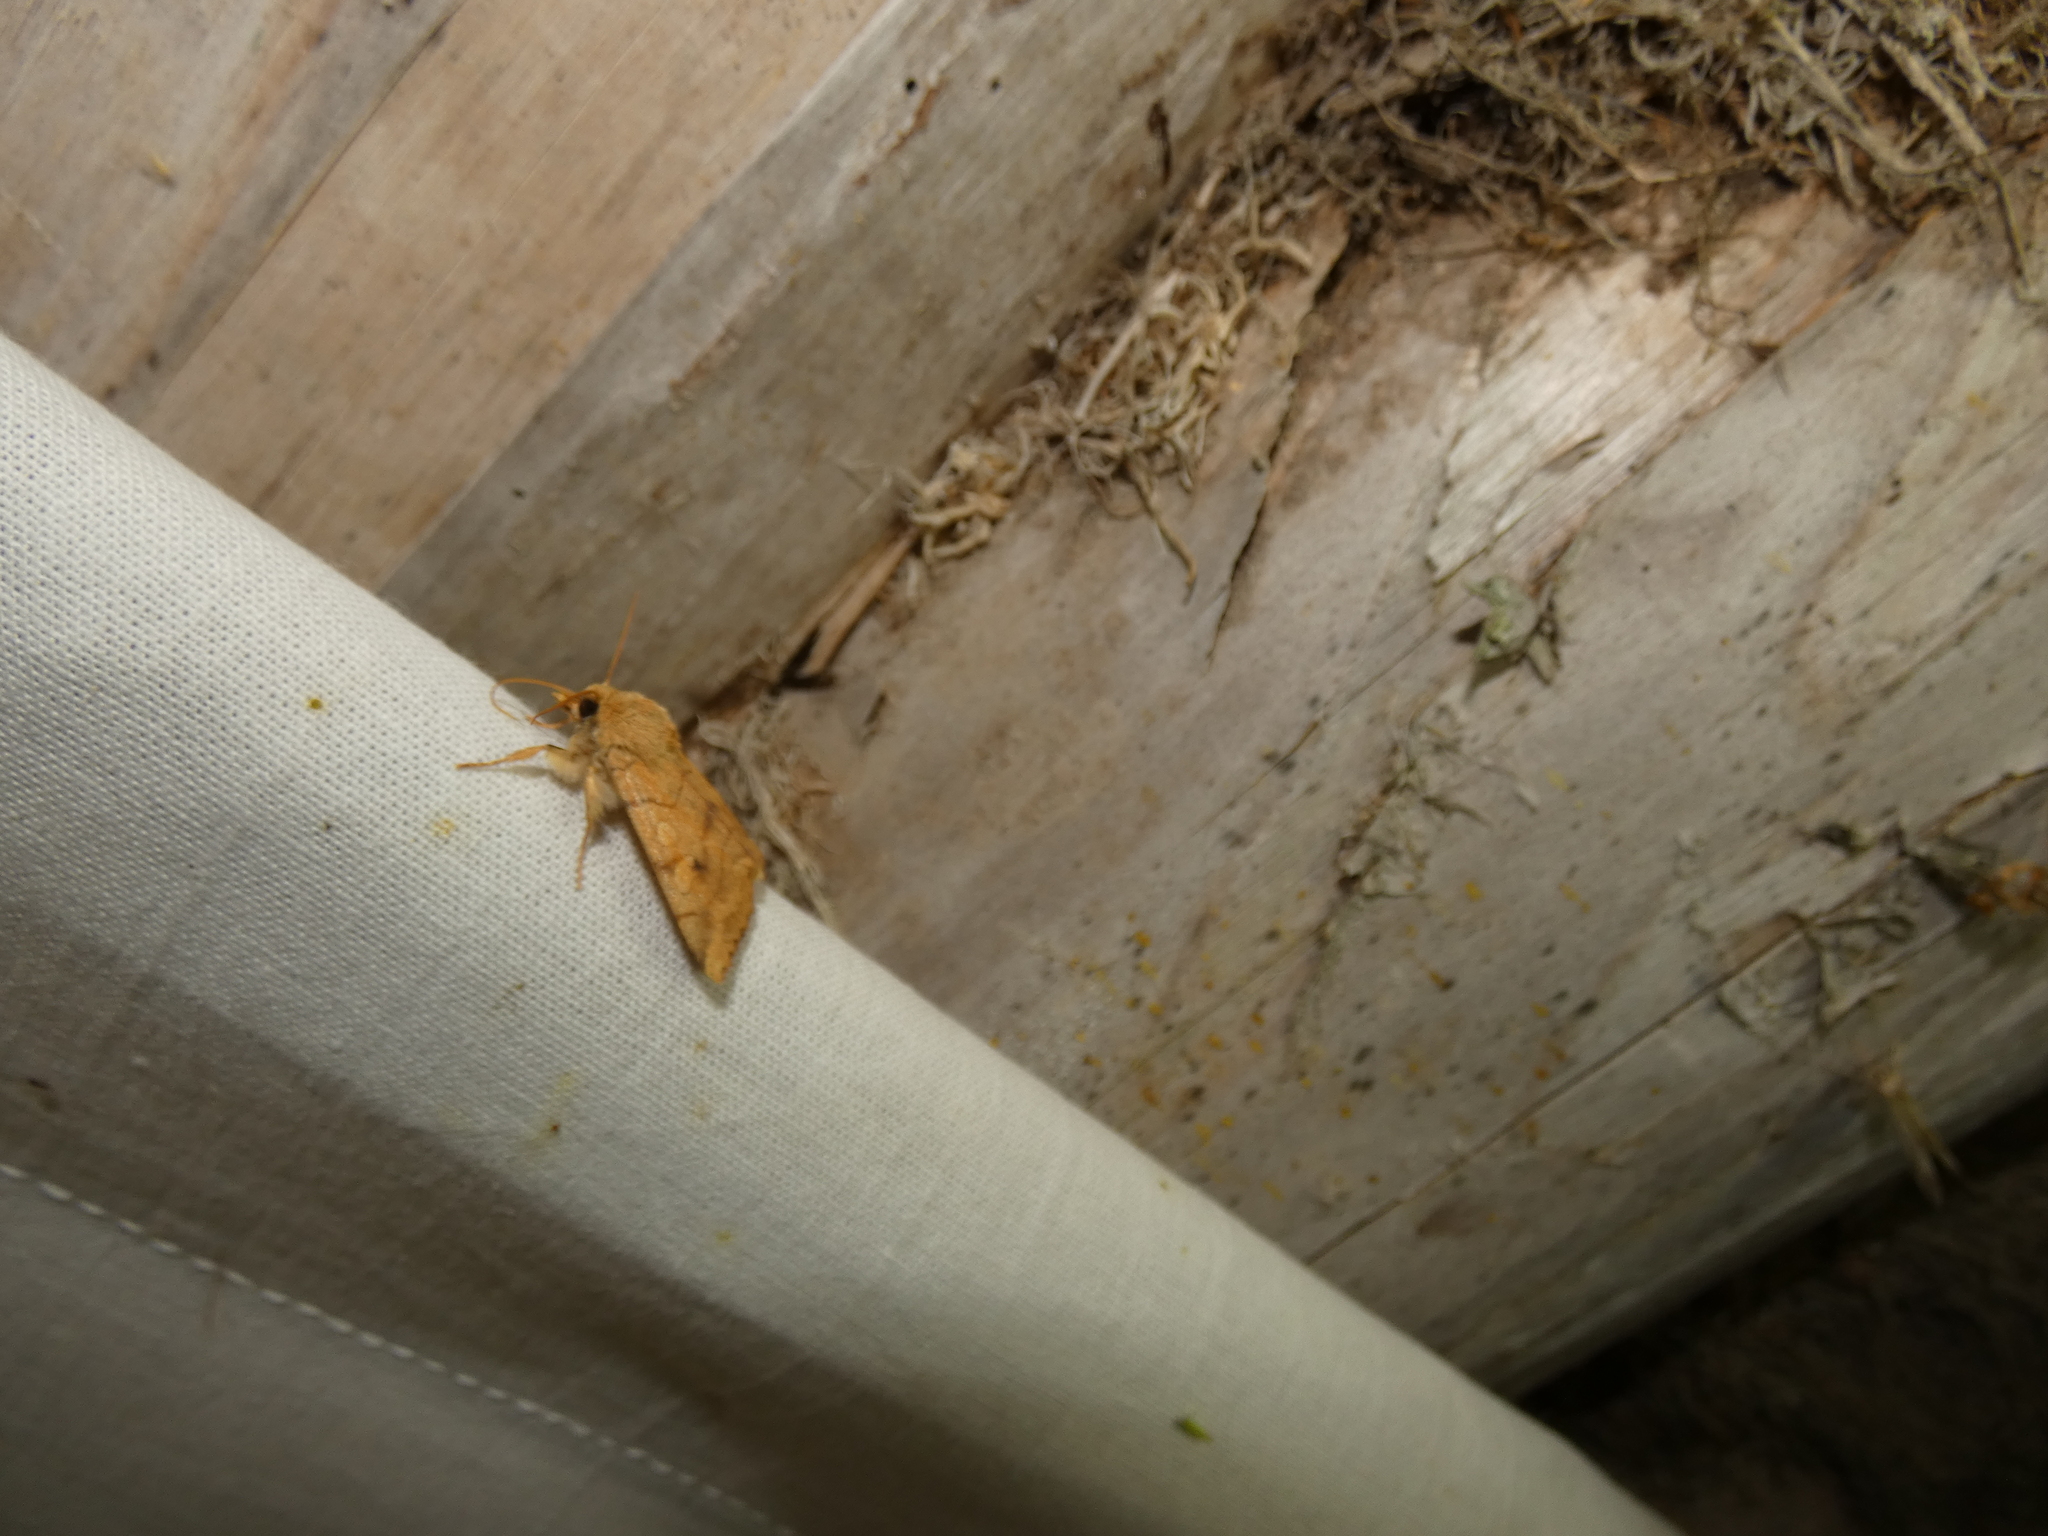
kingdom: Animalia
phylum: Arthropoda
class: Insecta
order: Lepidoptera
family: Noctuidae
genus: Enargia
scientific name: Enargia paleacea
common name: Angle-striped sallow
